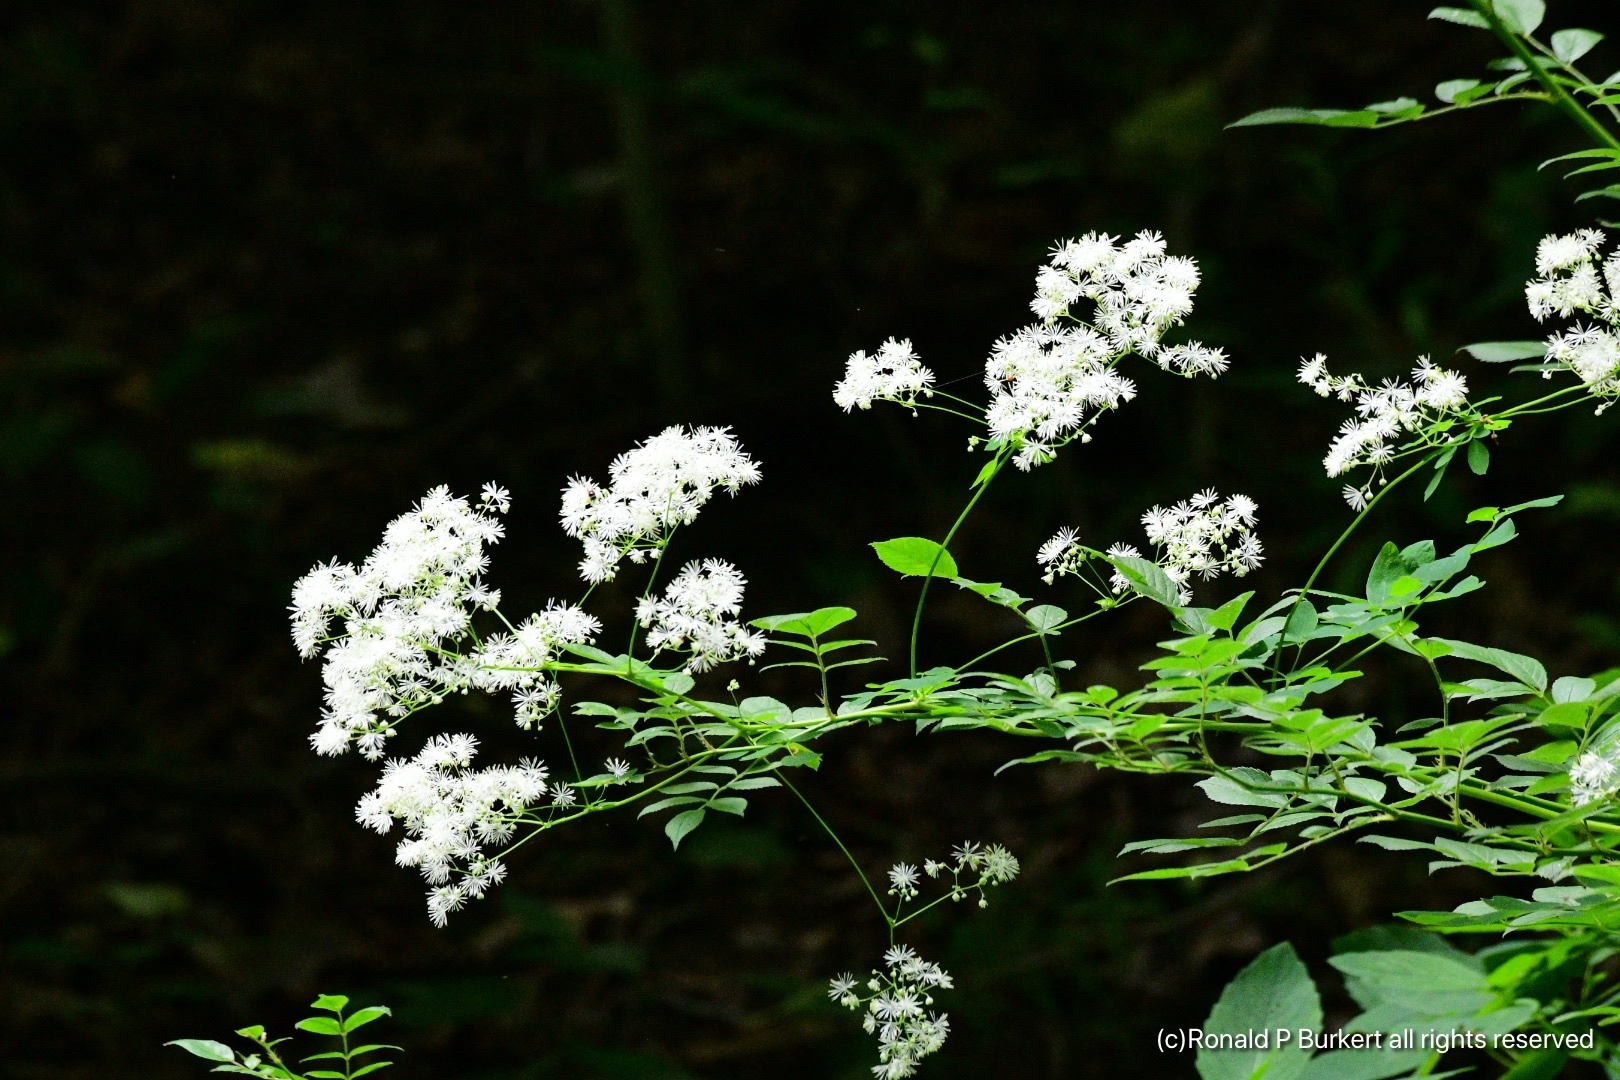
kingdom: Plantae
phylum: Tracheophyta
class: Magnoliopsida
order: Ranunculales
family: Ranunculaceae
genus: Thalictrum
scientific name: Thalictrum pubescens
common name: King-of-the-meadow
